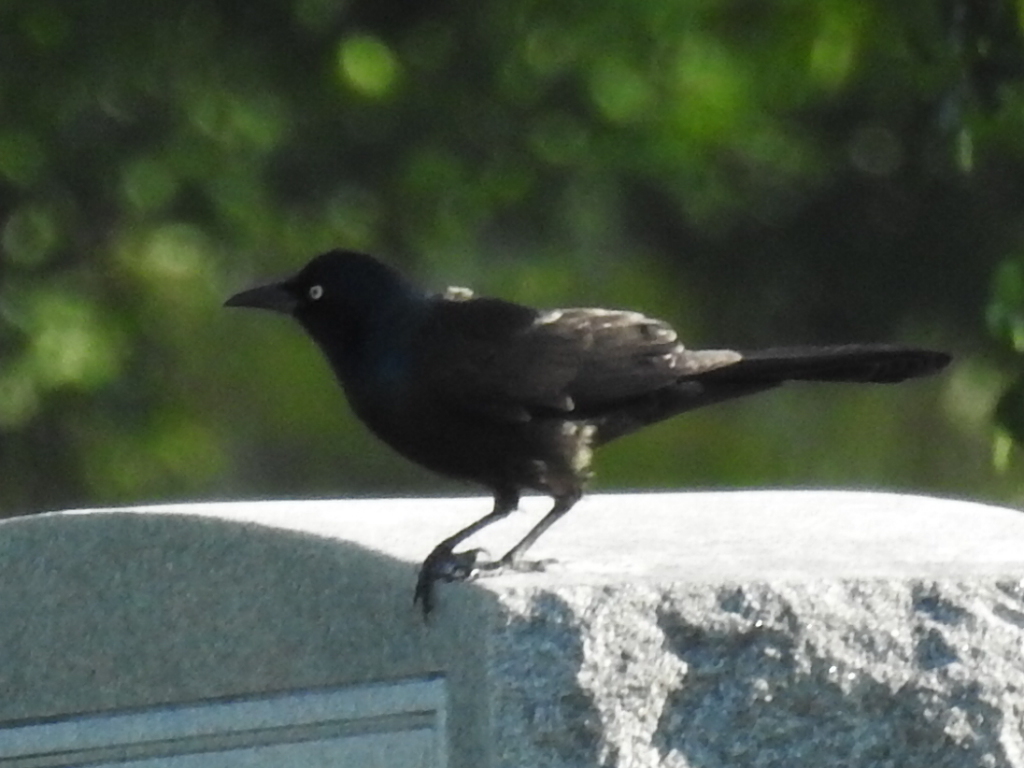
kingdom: Animalia
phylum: Chordata
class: Aves
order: Passeriformes
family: Icteridae
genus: Quiscalus
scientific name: Quiscalus quiscula
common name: Common grackle
